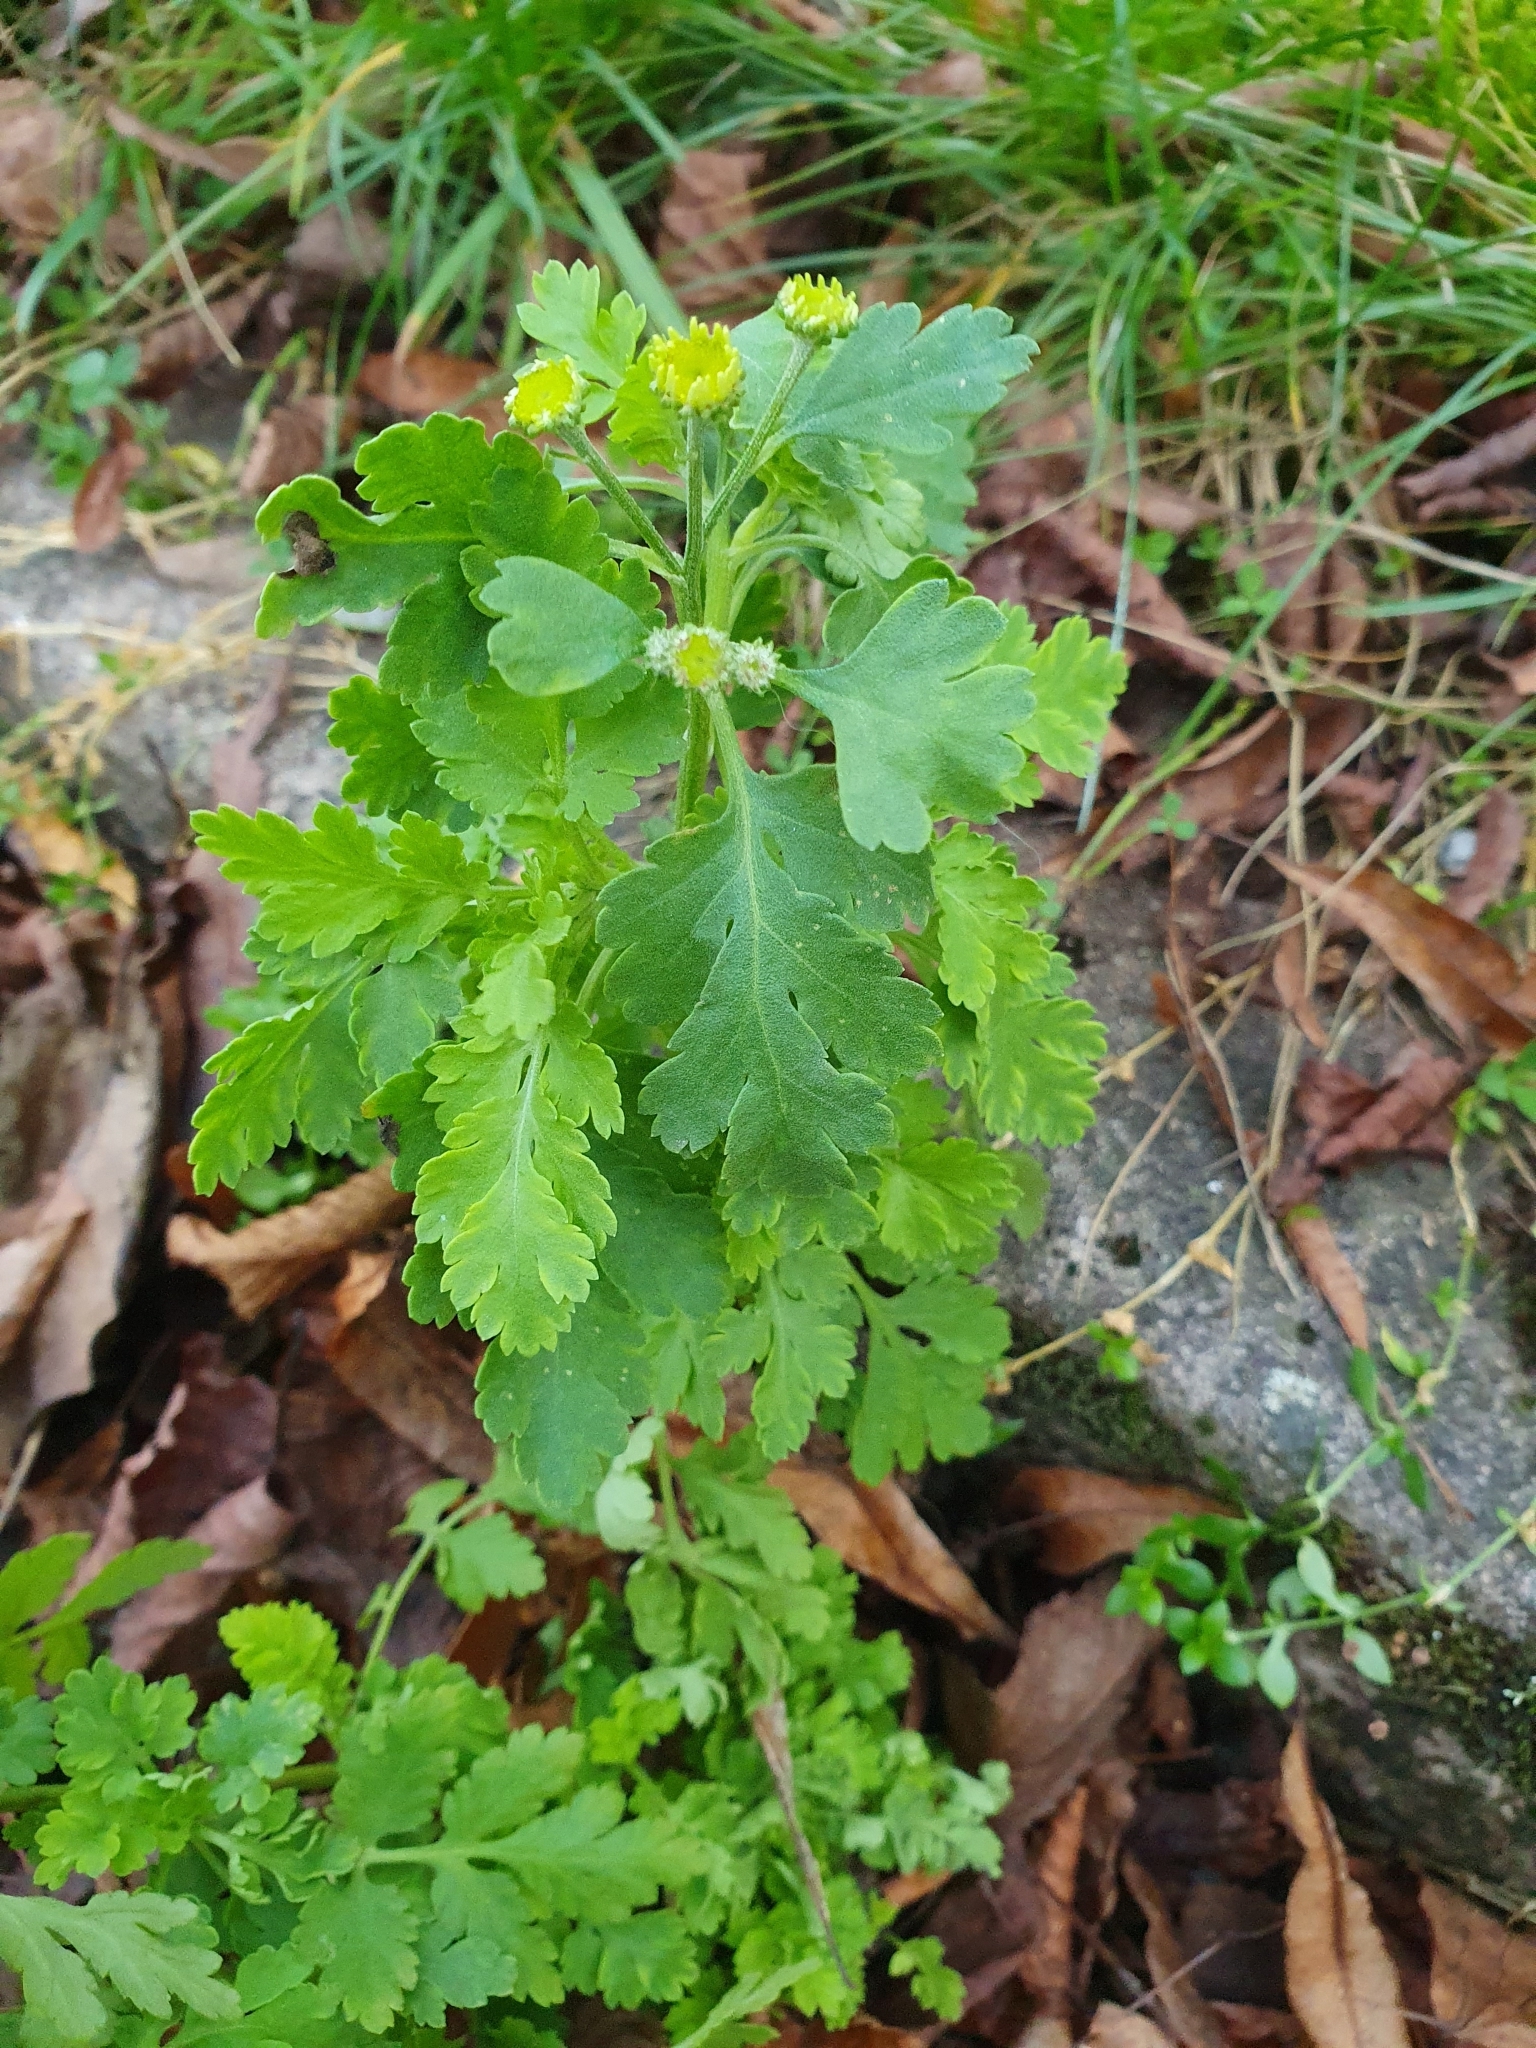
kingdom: Plantae
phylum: Tracheophyta
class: Magnoliopsida
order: Asterales
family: Asteraceae
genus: Tanacetum
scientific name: Tanacetum parthenium
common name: Feverfew
